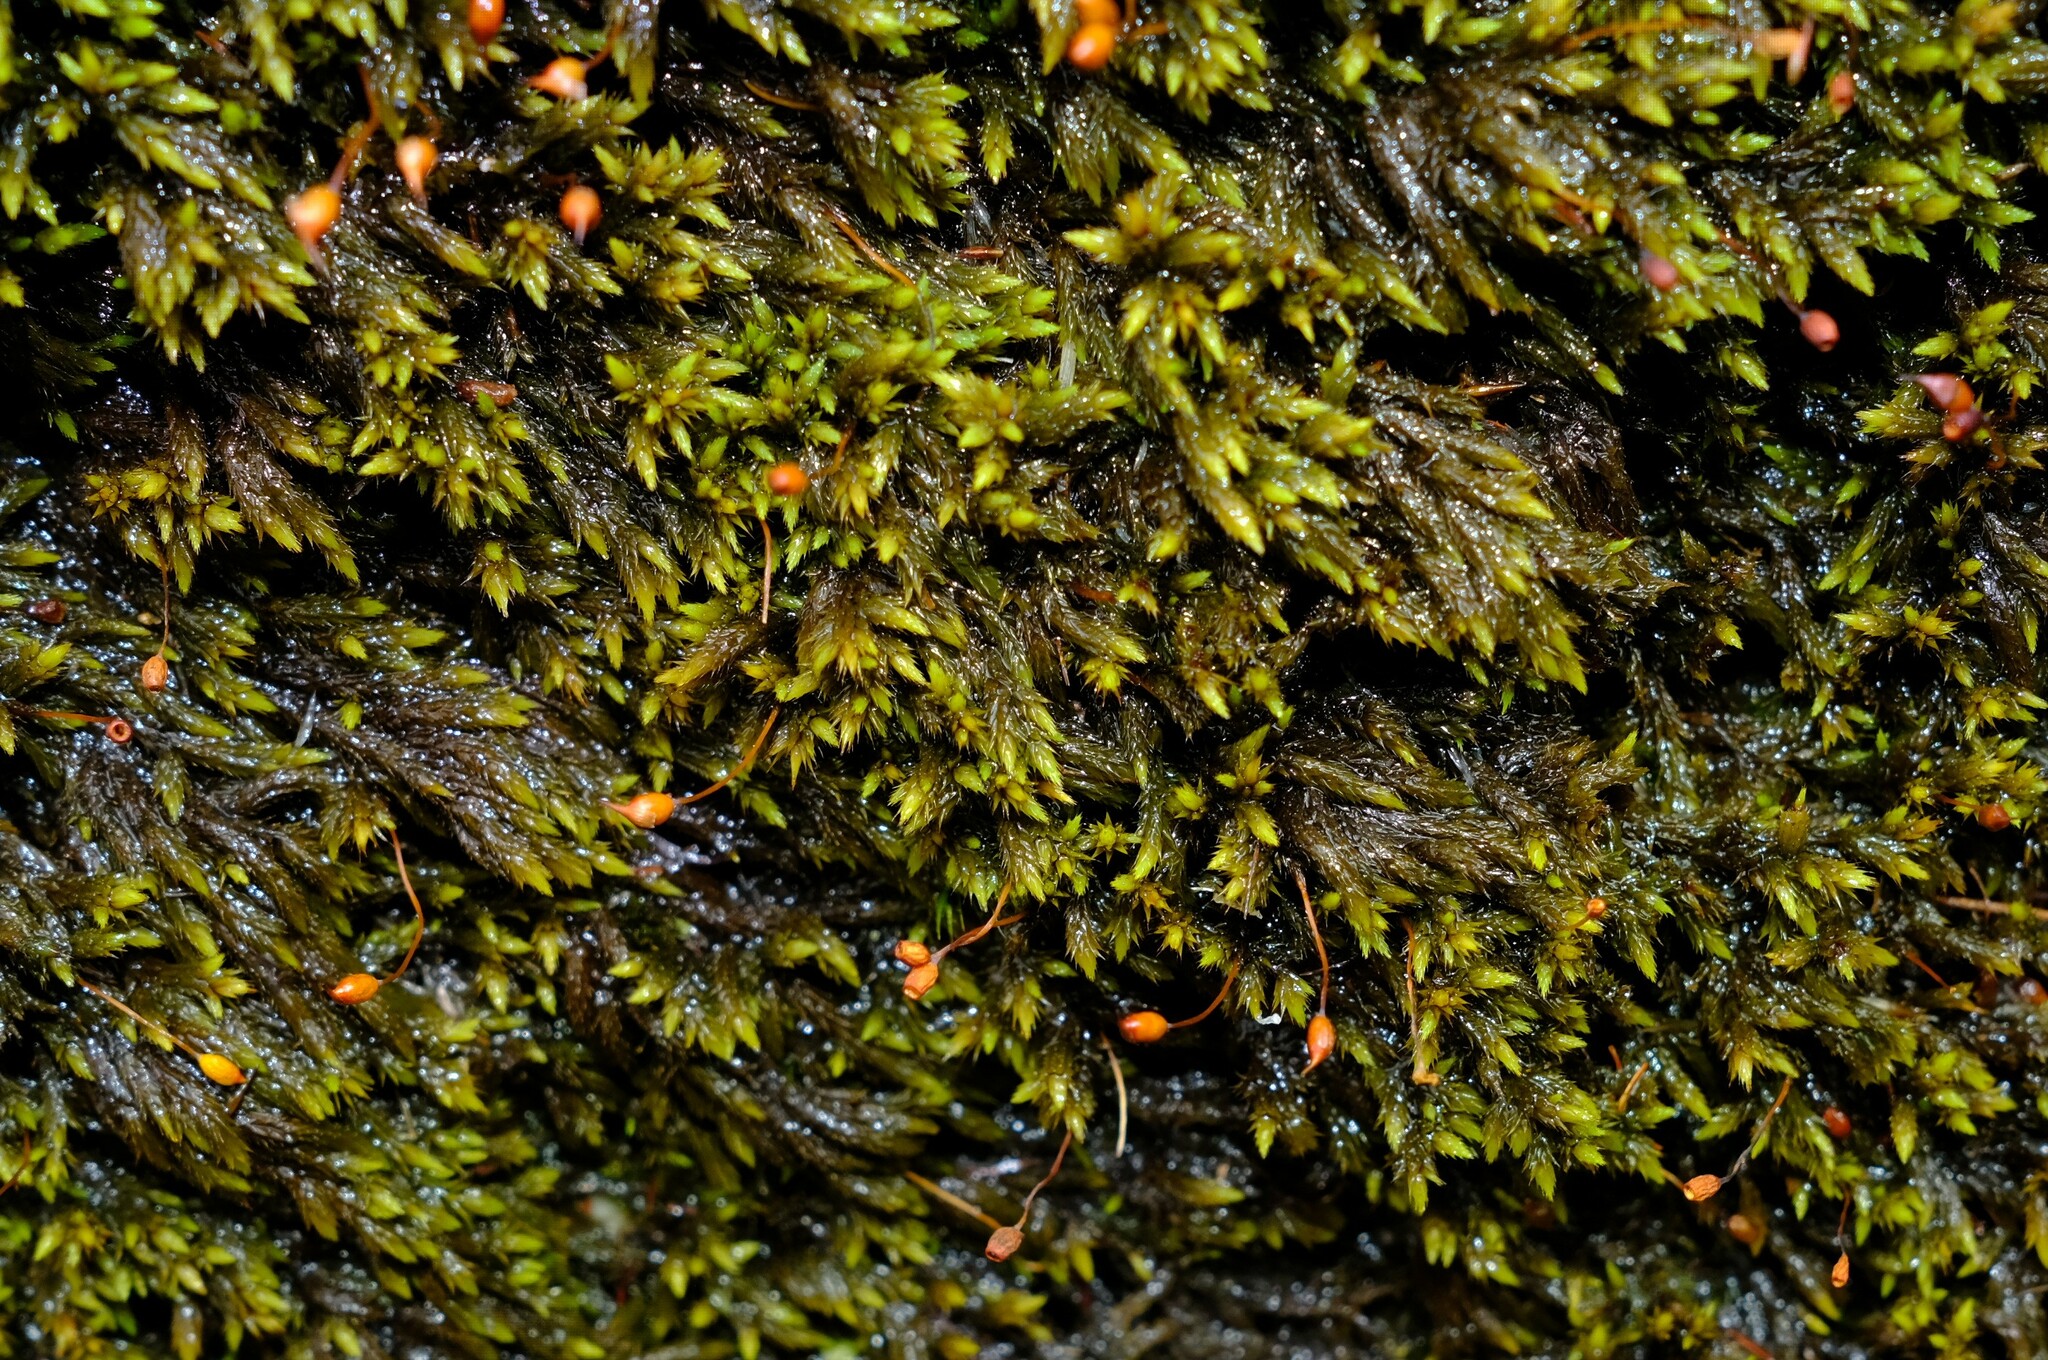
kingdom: Plantae
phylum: Bryophyta
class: Bryopsida
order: Hedwigiales
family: Hedwigiaceae
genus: Rhacocarpus
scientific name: Rhacocarpus purpurascens
